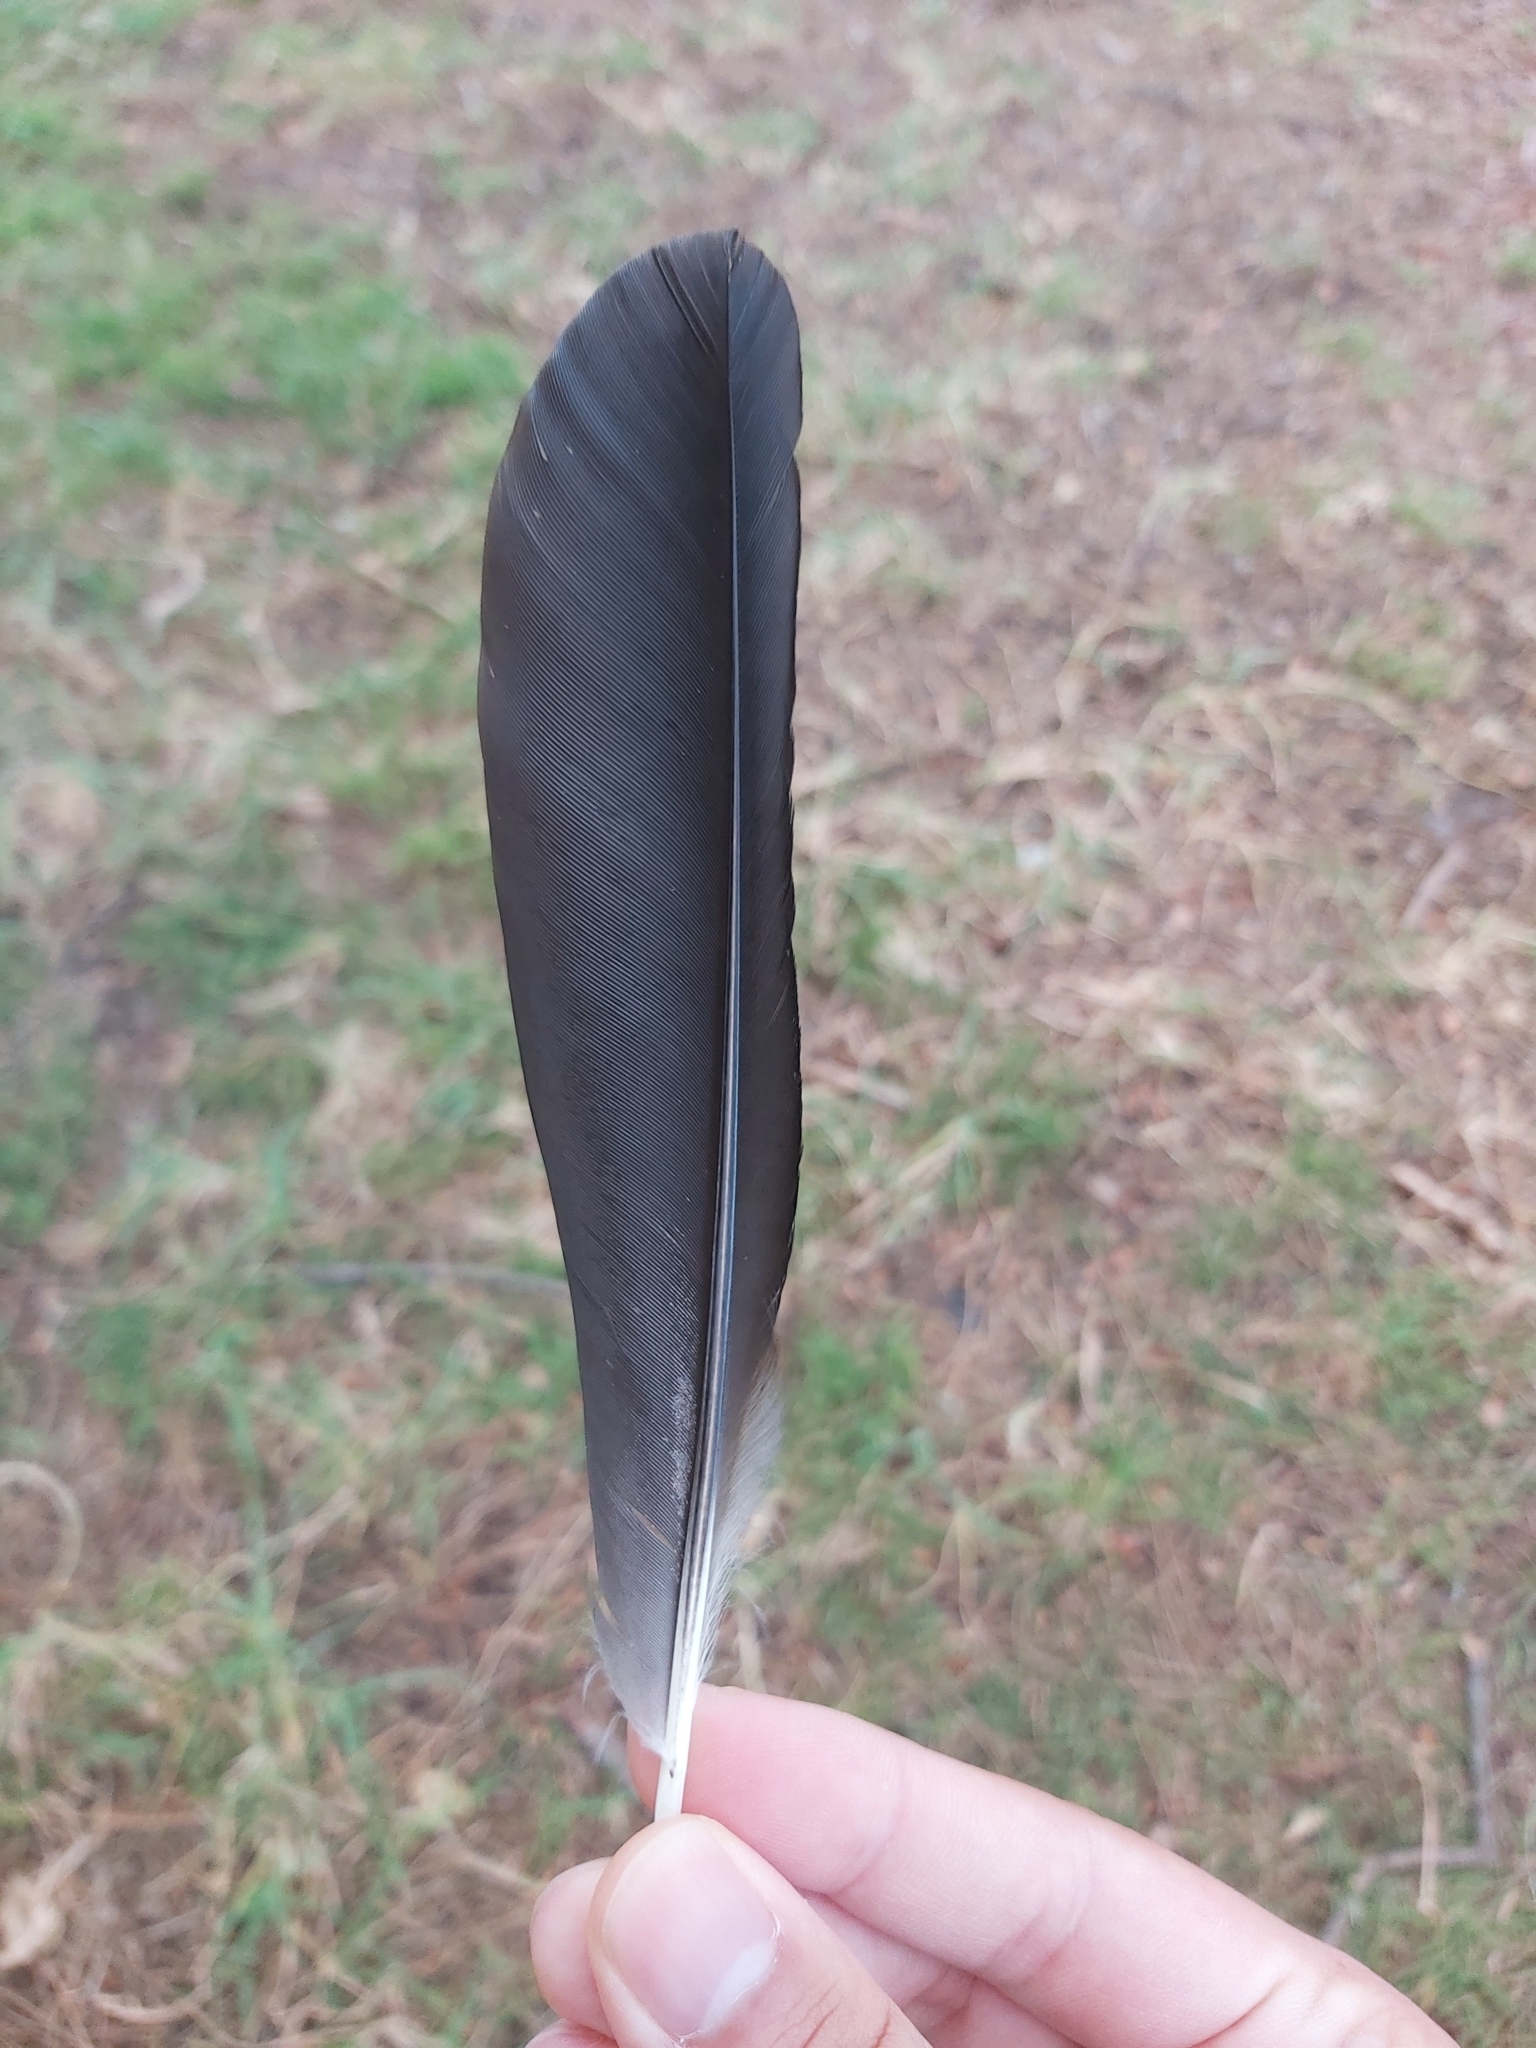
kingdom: Animalia
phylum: Chordata
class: Aves
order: Passeriformes
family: Cracticidae
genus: Gymnorhina
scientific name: Gymnorhina tibicen
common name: Australian magpie
